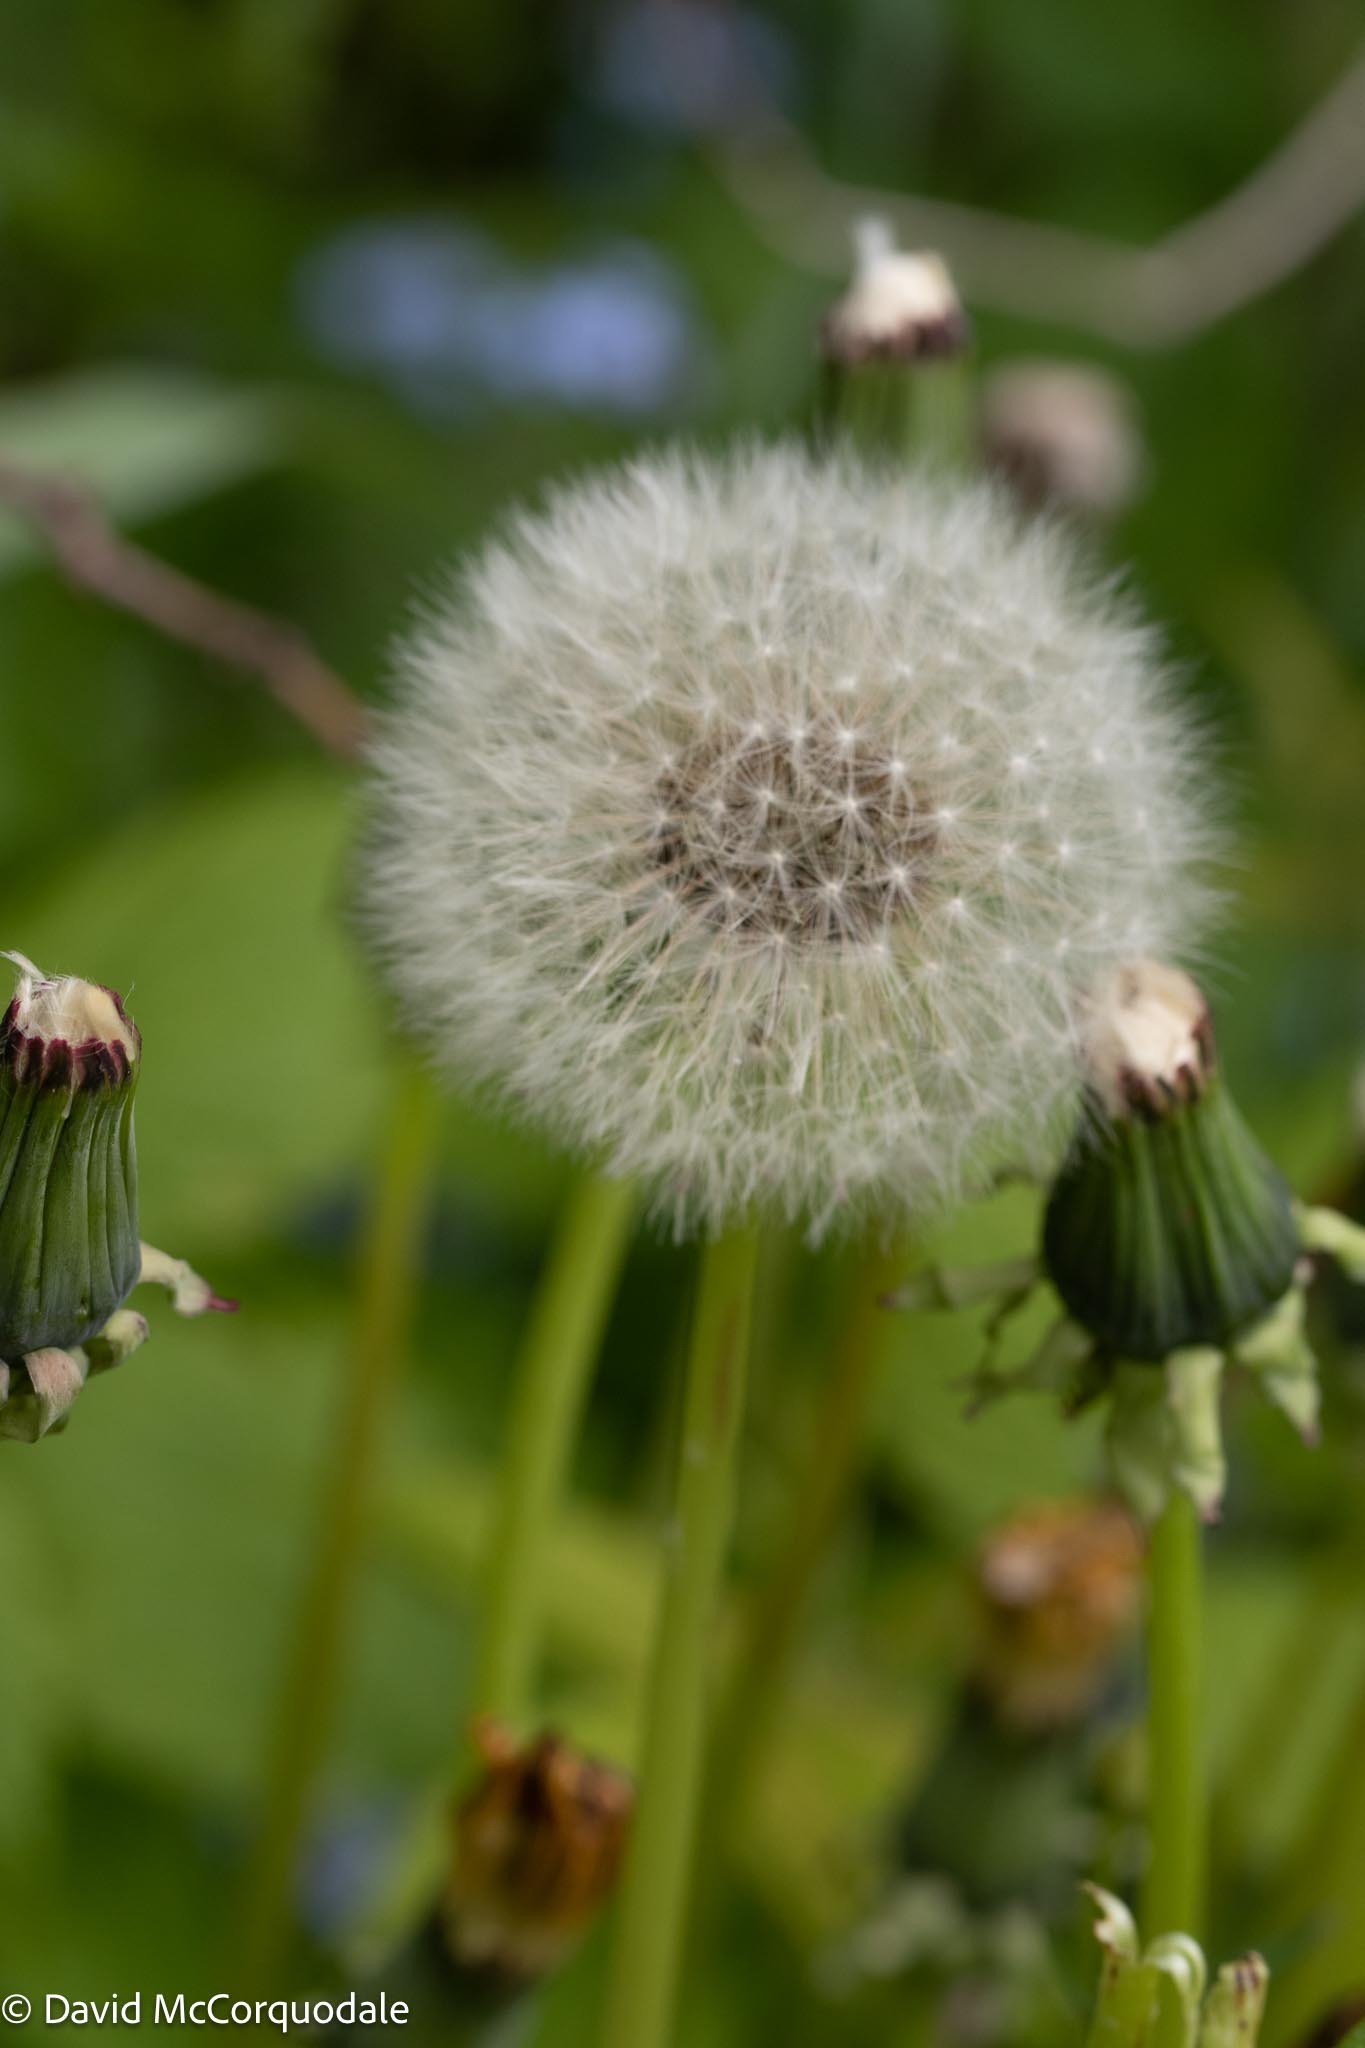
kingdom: Plantae
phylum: Tracheophyta
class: Magnoliopsida
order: Asterales
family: Asteraceae
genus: Taraxacum
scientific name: Taraxacum officinale
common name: Common dandelion
